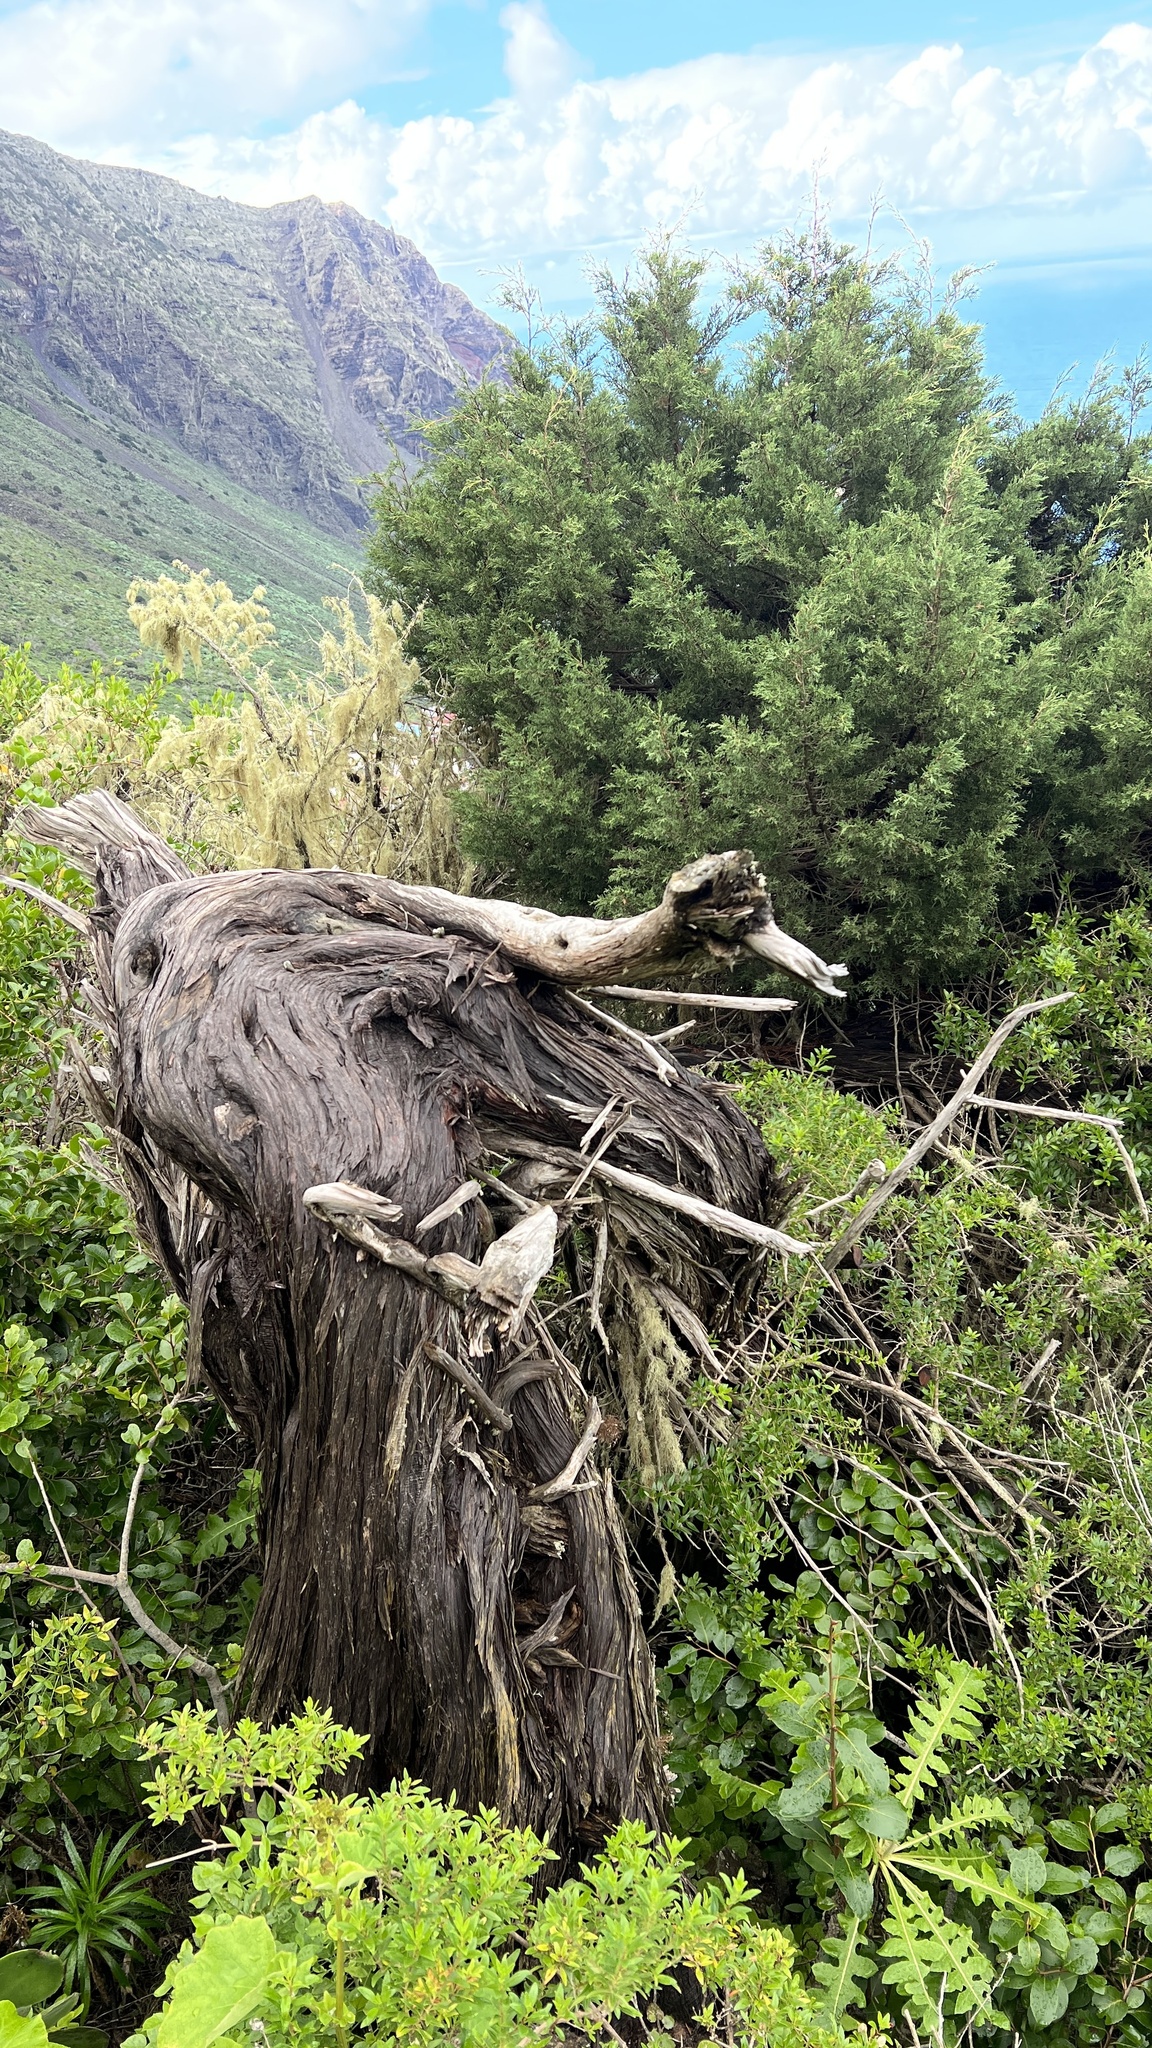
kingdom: Plantae
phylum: Tracheophyta
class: Pinopsida
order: Pinales
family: Cupressaceae
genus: Juniperus
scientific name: Juniperus canariensis
